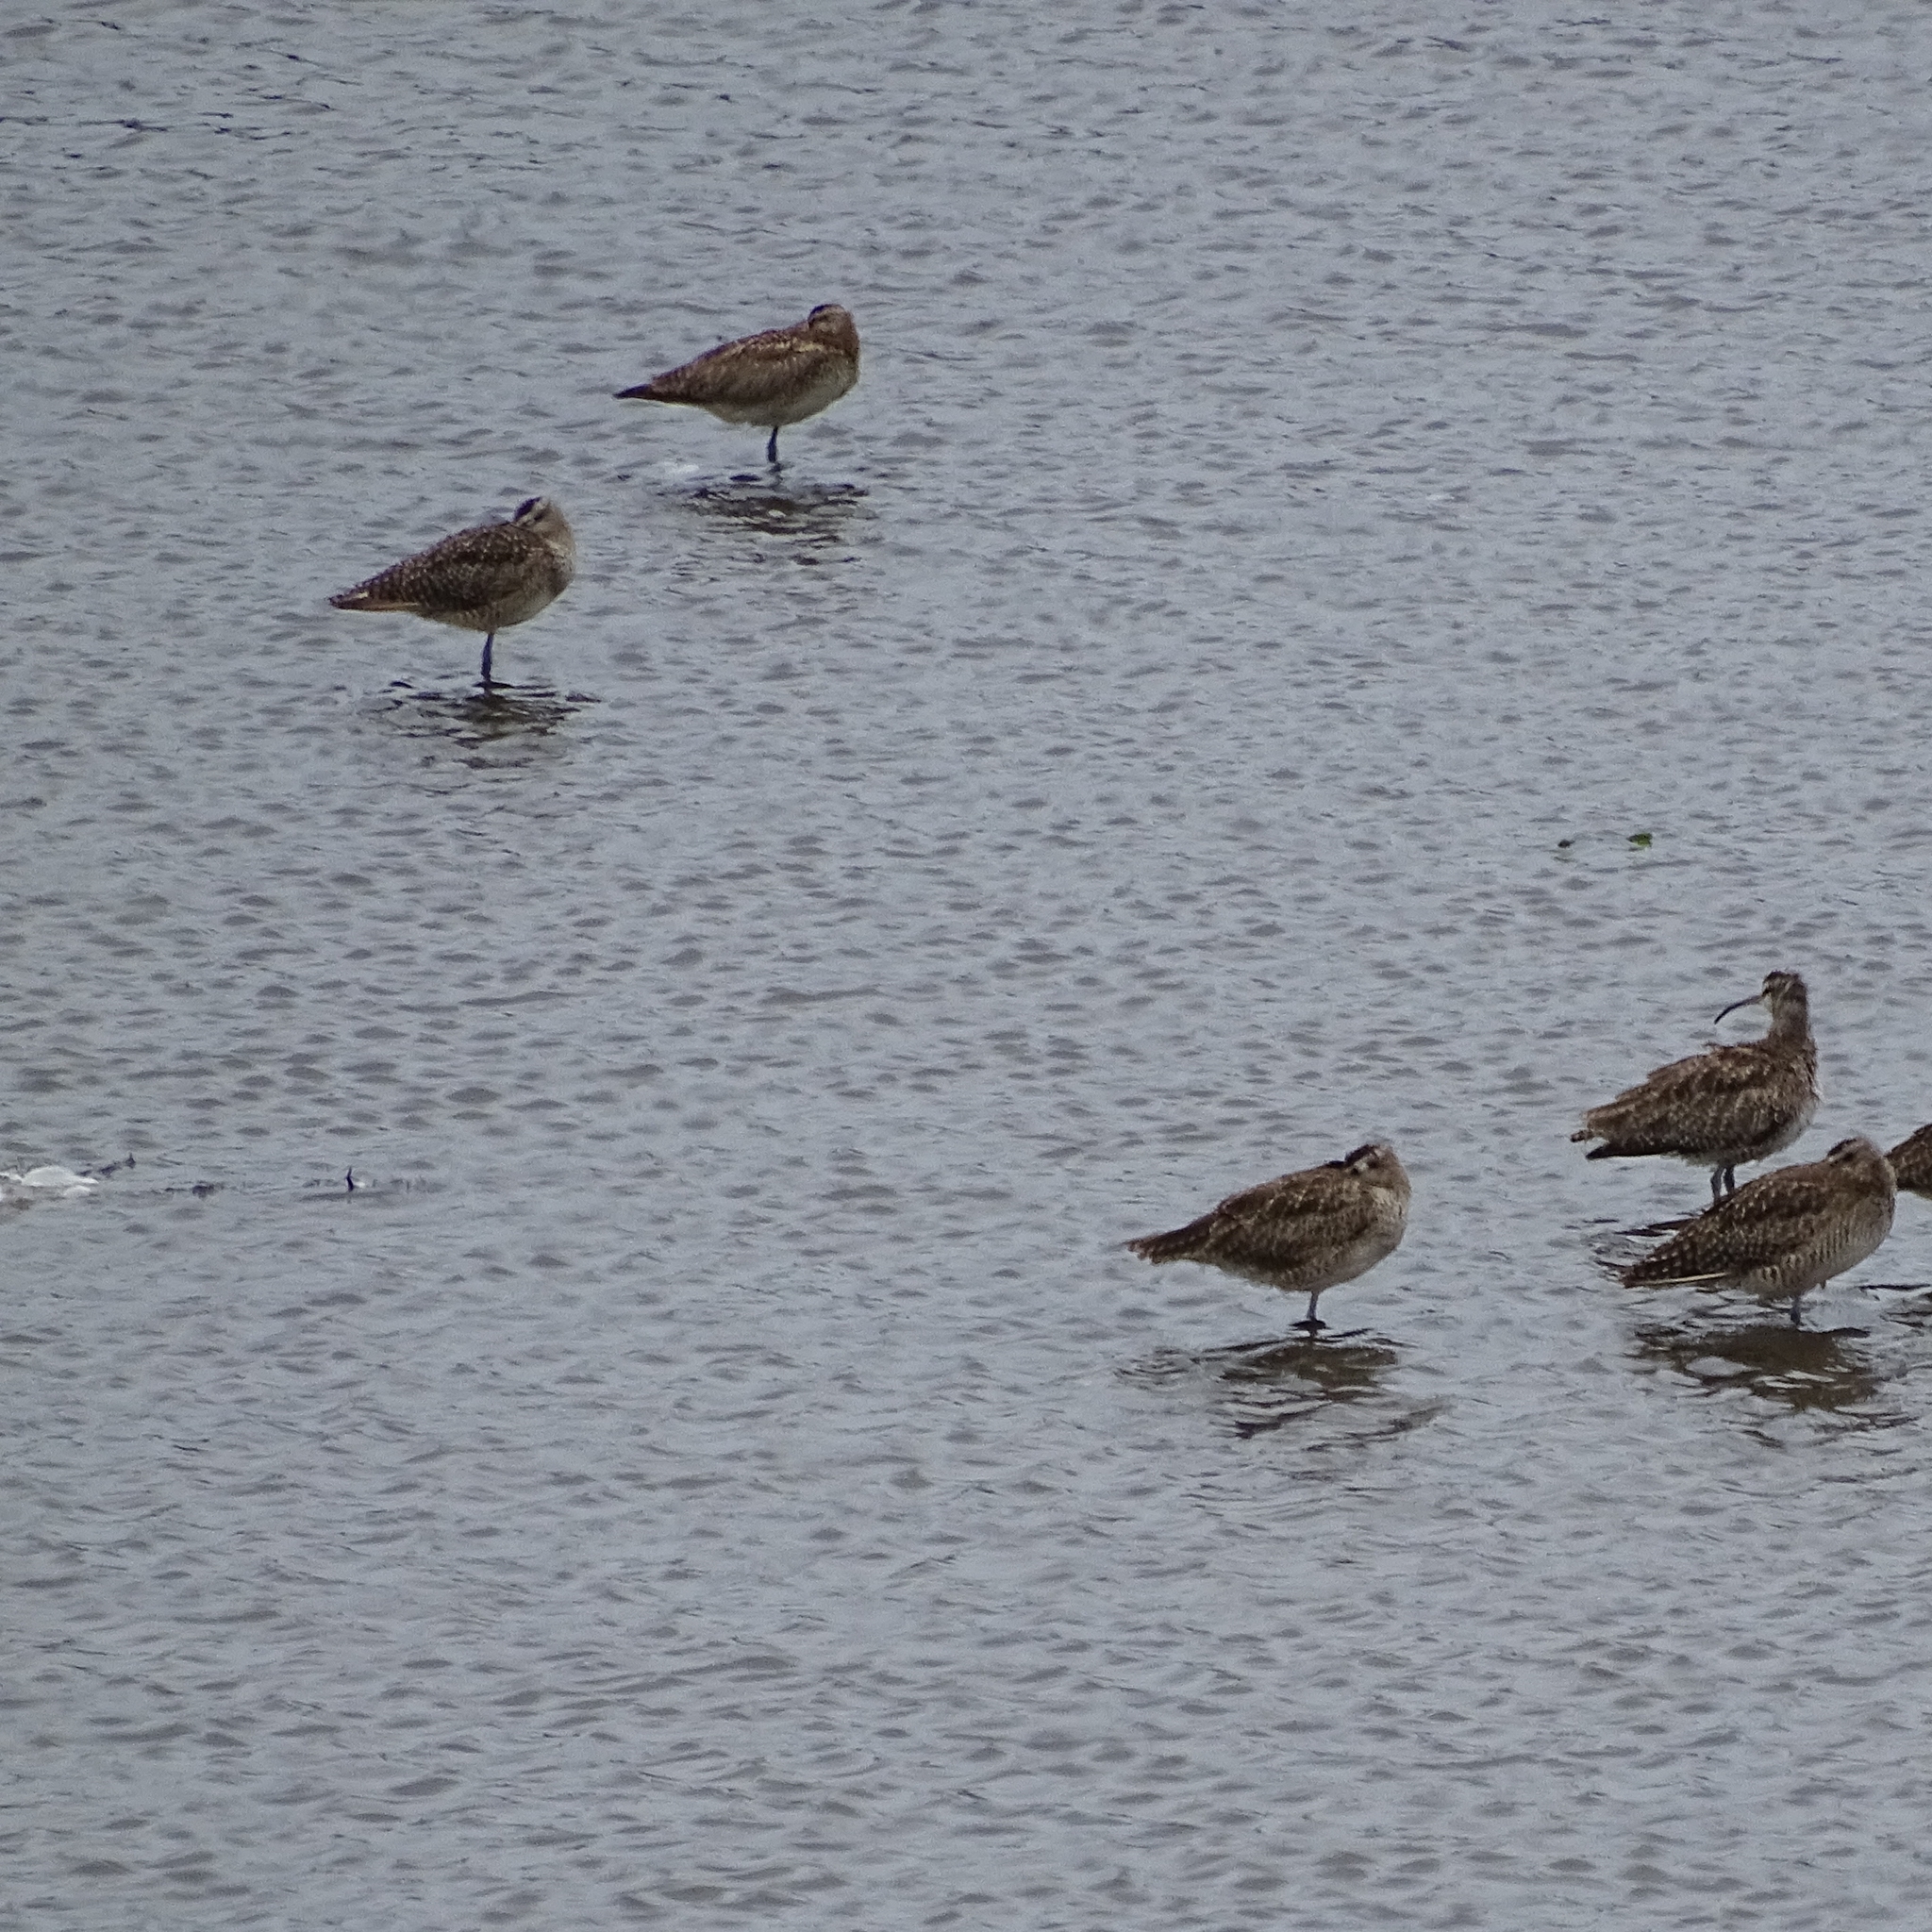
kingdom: Animalia
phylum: Chordata
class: Aves
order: Charadriiformes
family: Scolopacidae
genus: Numenius
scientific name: Numenius phaeopus
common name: Whimbrel
